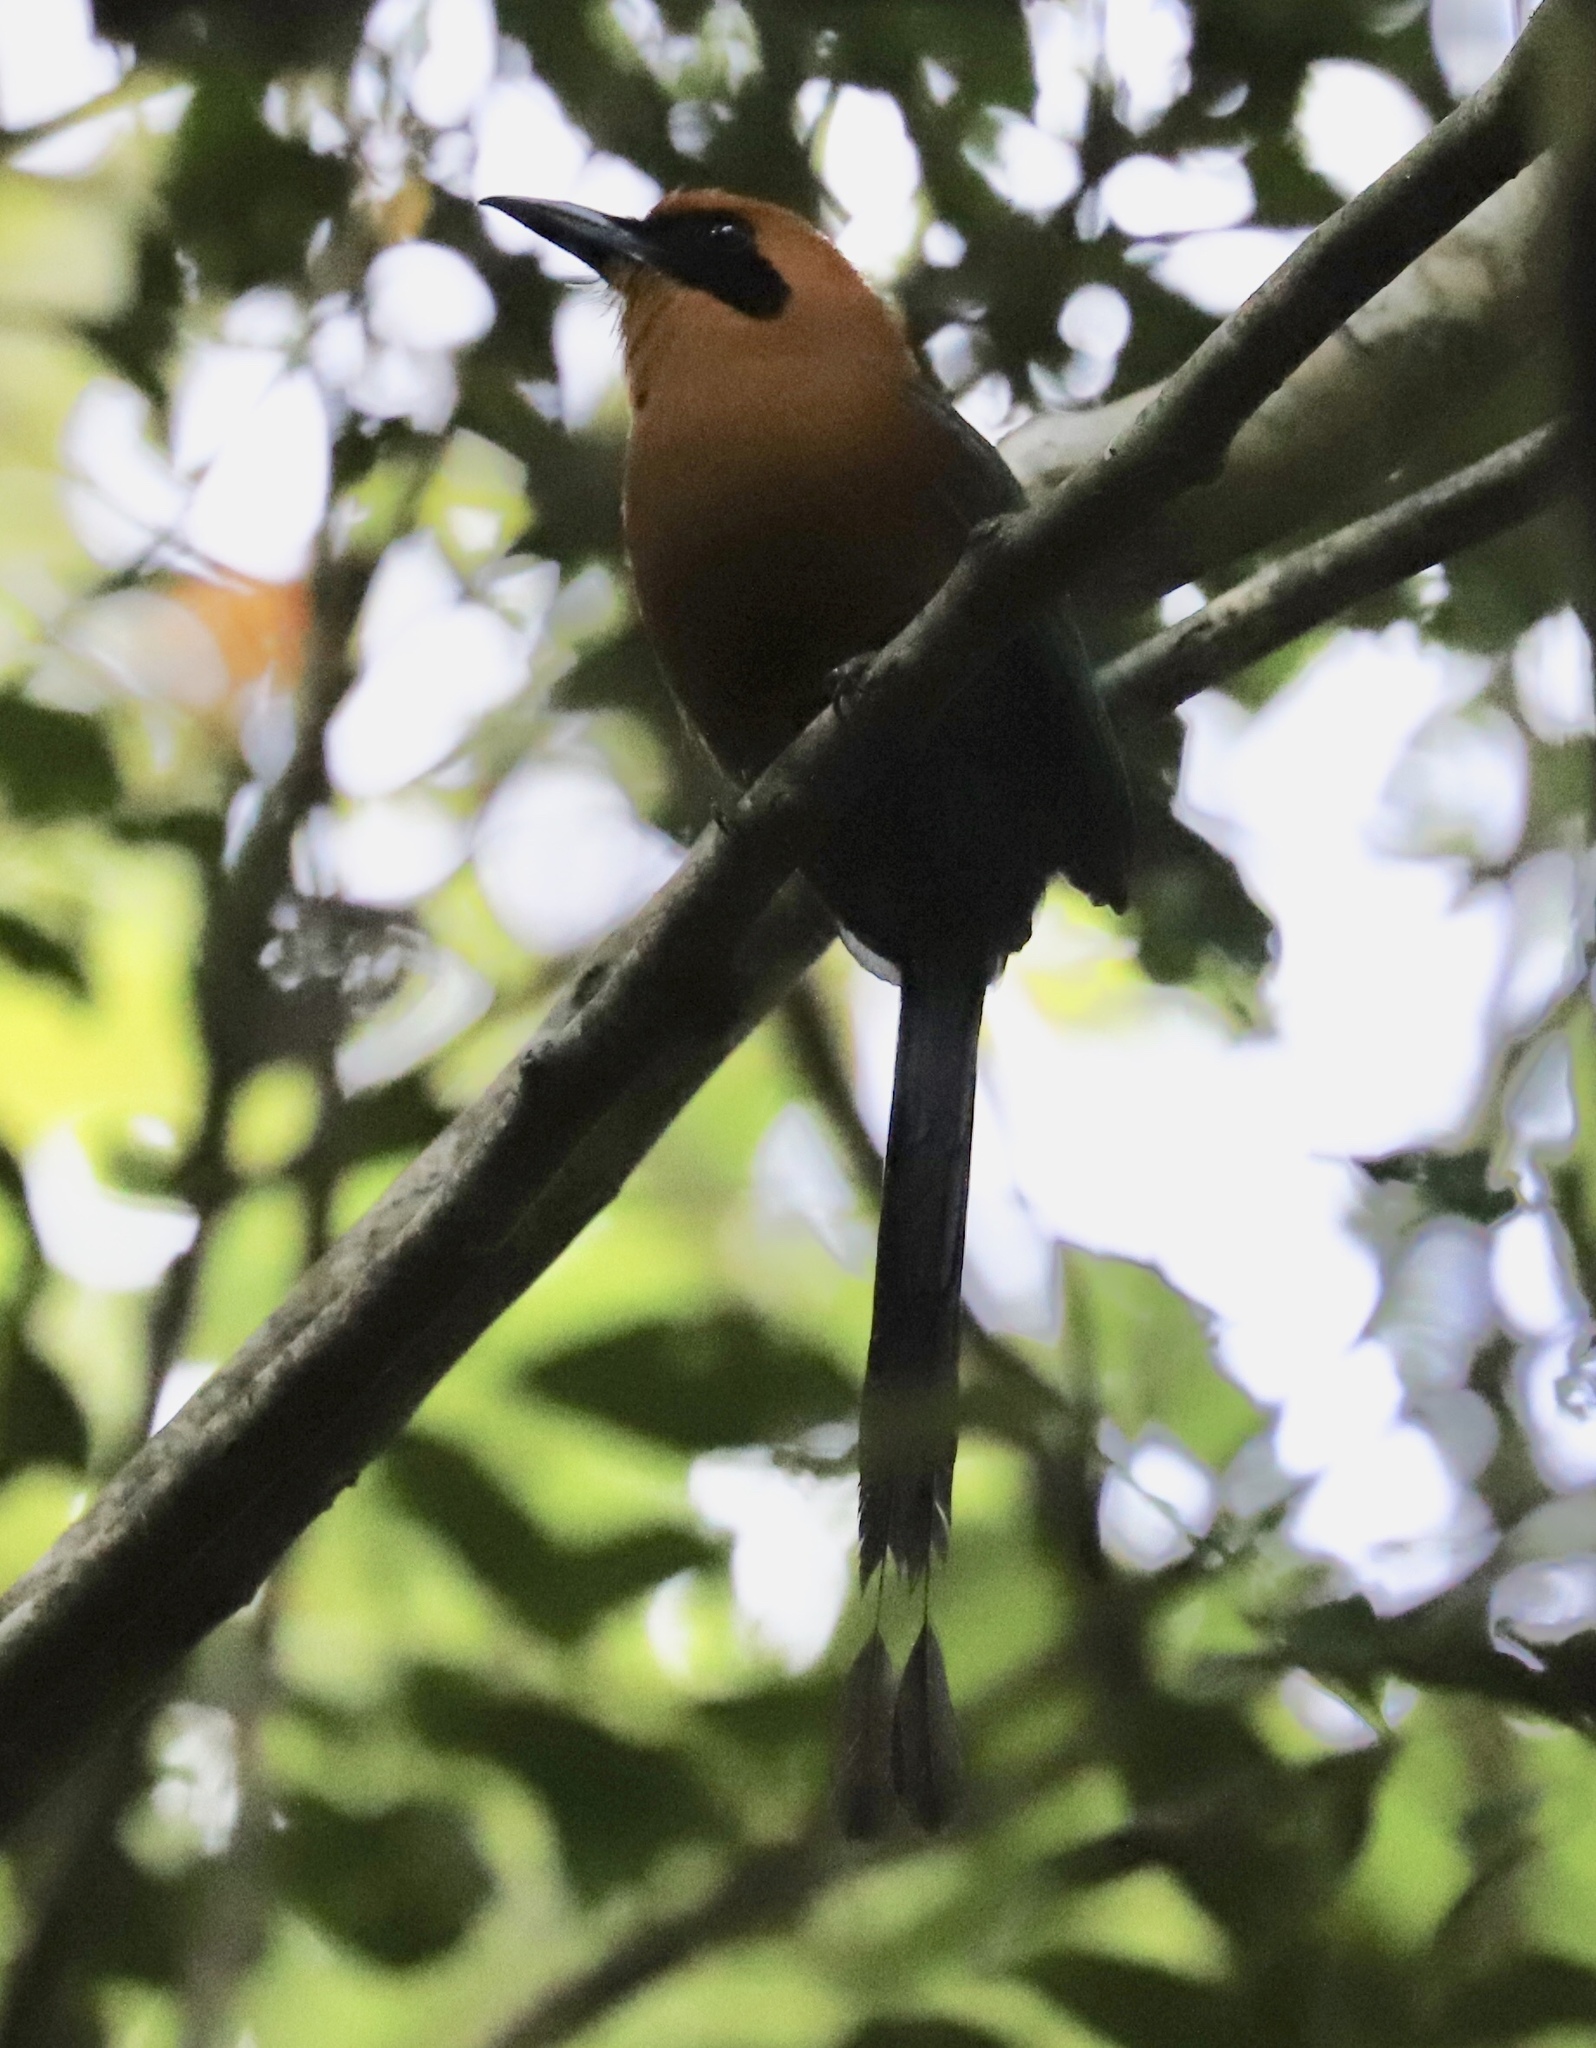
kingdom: Animalia
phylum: Chordata
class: Aves
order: Coraciiformes
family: Momotidae
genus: Baryphthengus
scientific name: Baryphthengus martii
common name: Rufous motmot
